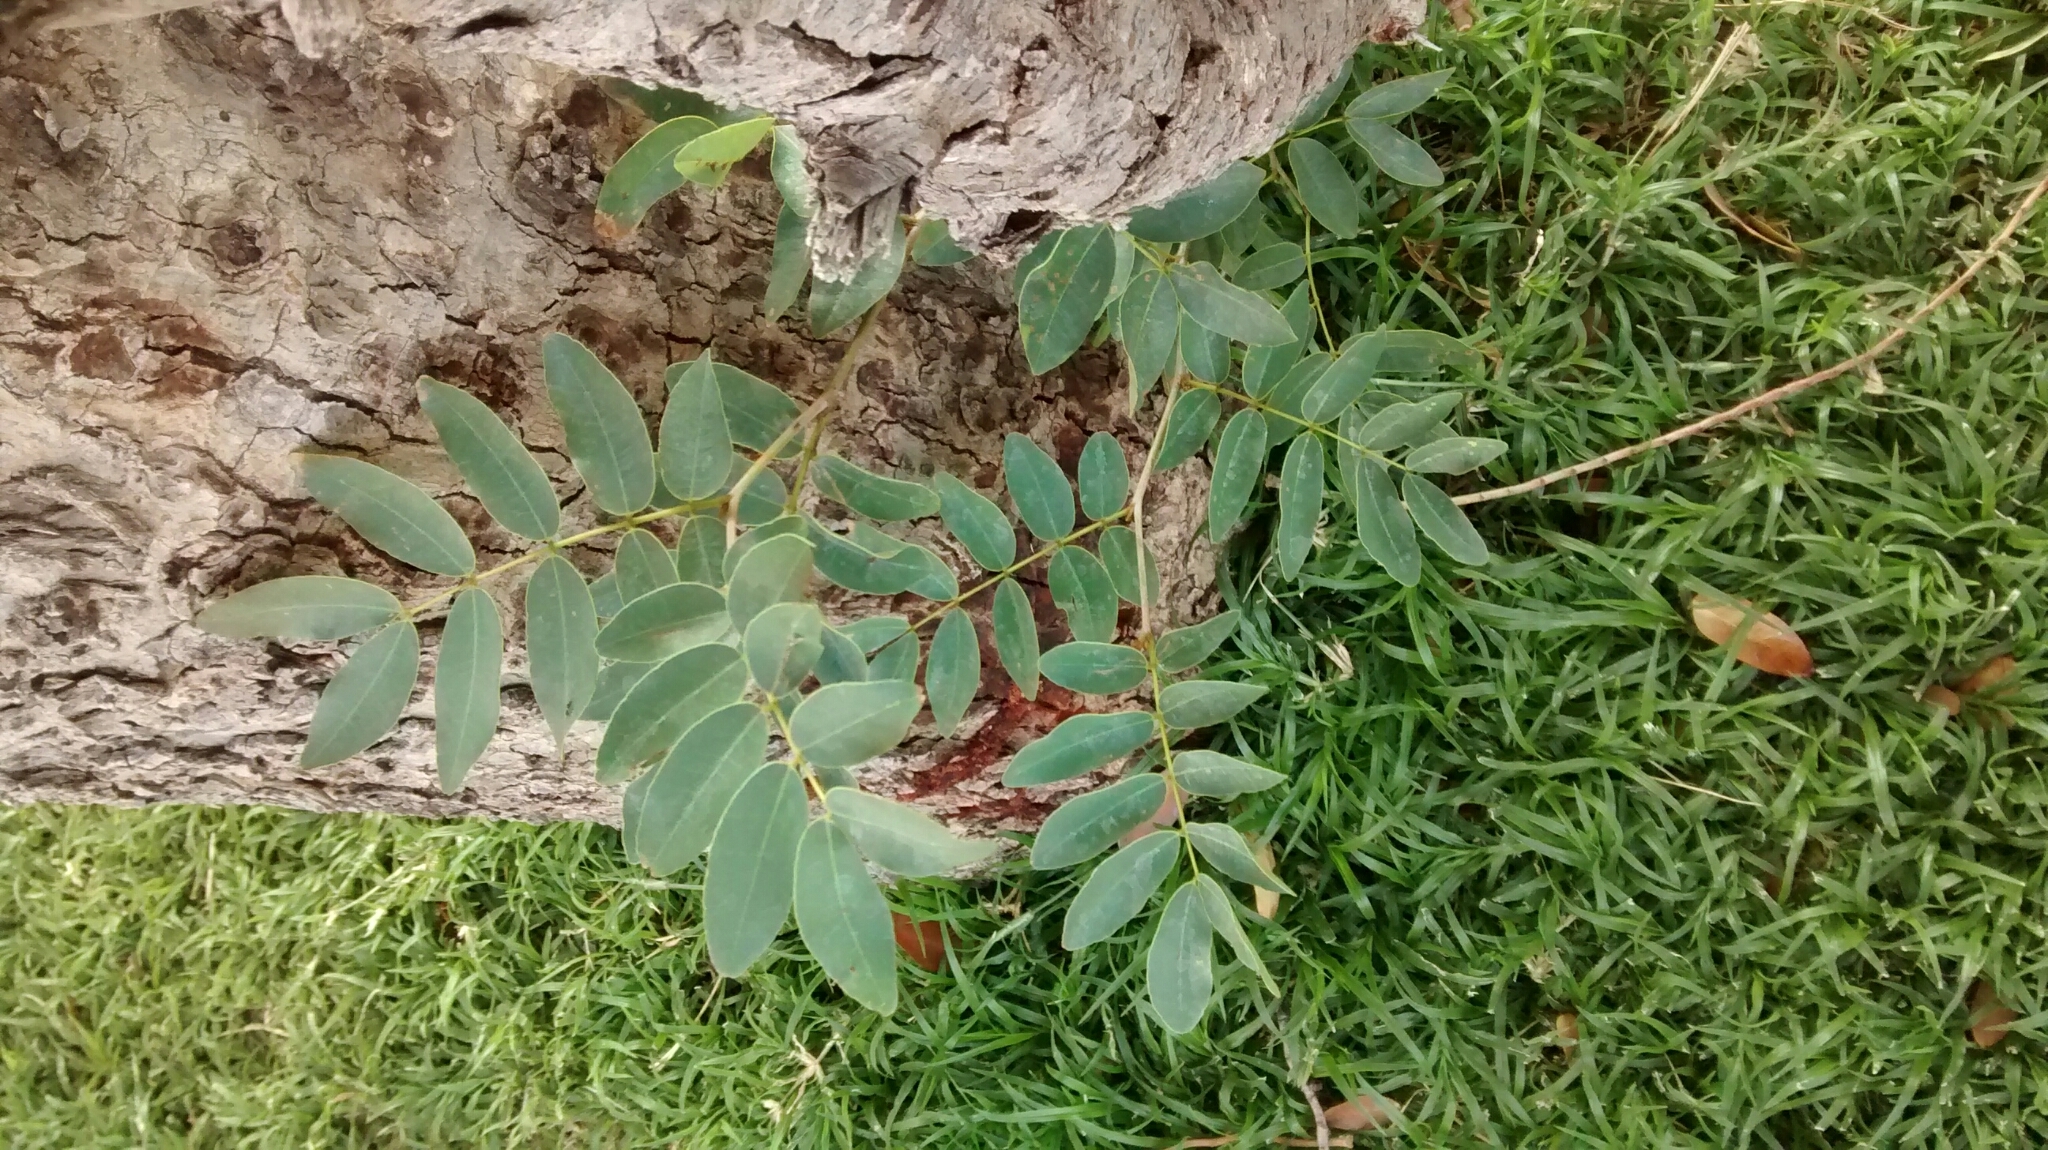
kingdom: Plantae
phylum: Tracheophyta
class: Magnoliopsida
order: Fabales
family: Fabaceae
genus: Baikiaea
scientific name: Baikiaea plurijuga
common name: Rhodesian-teak
